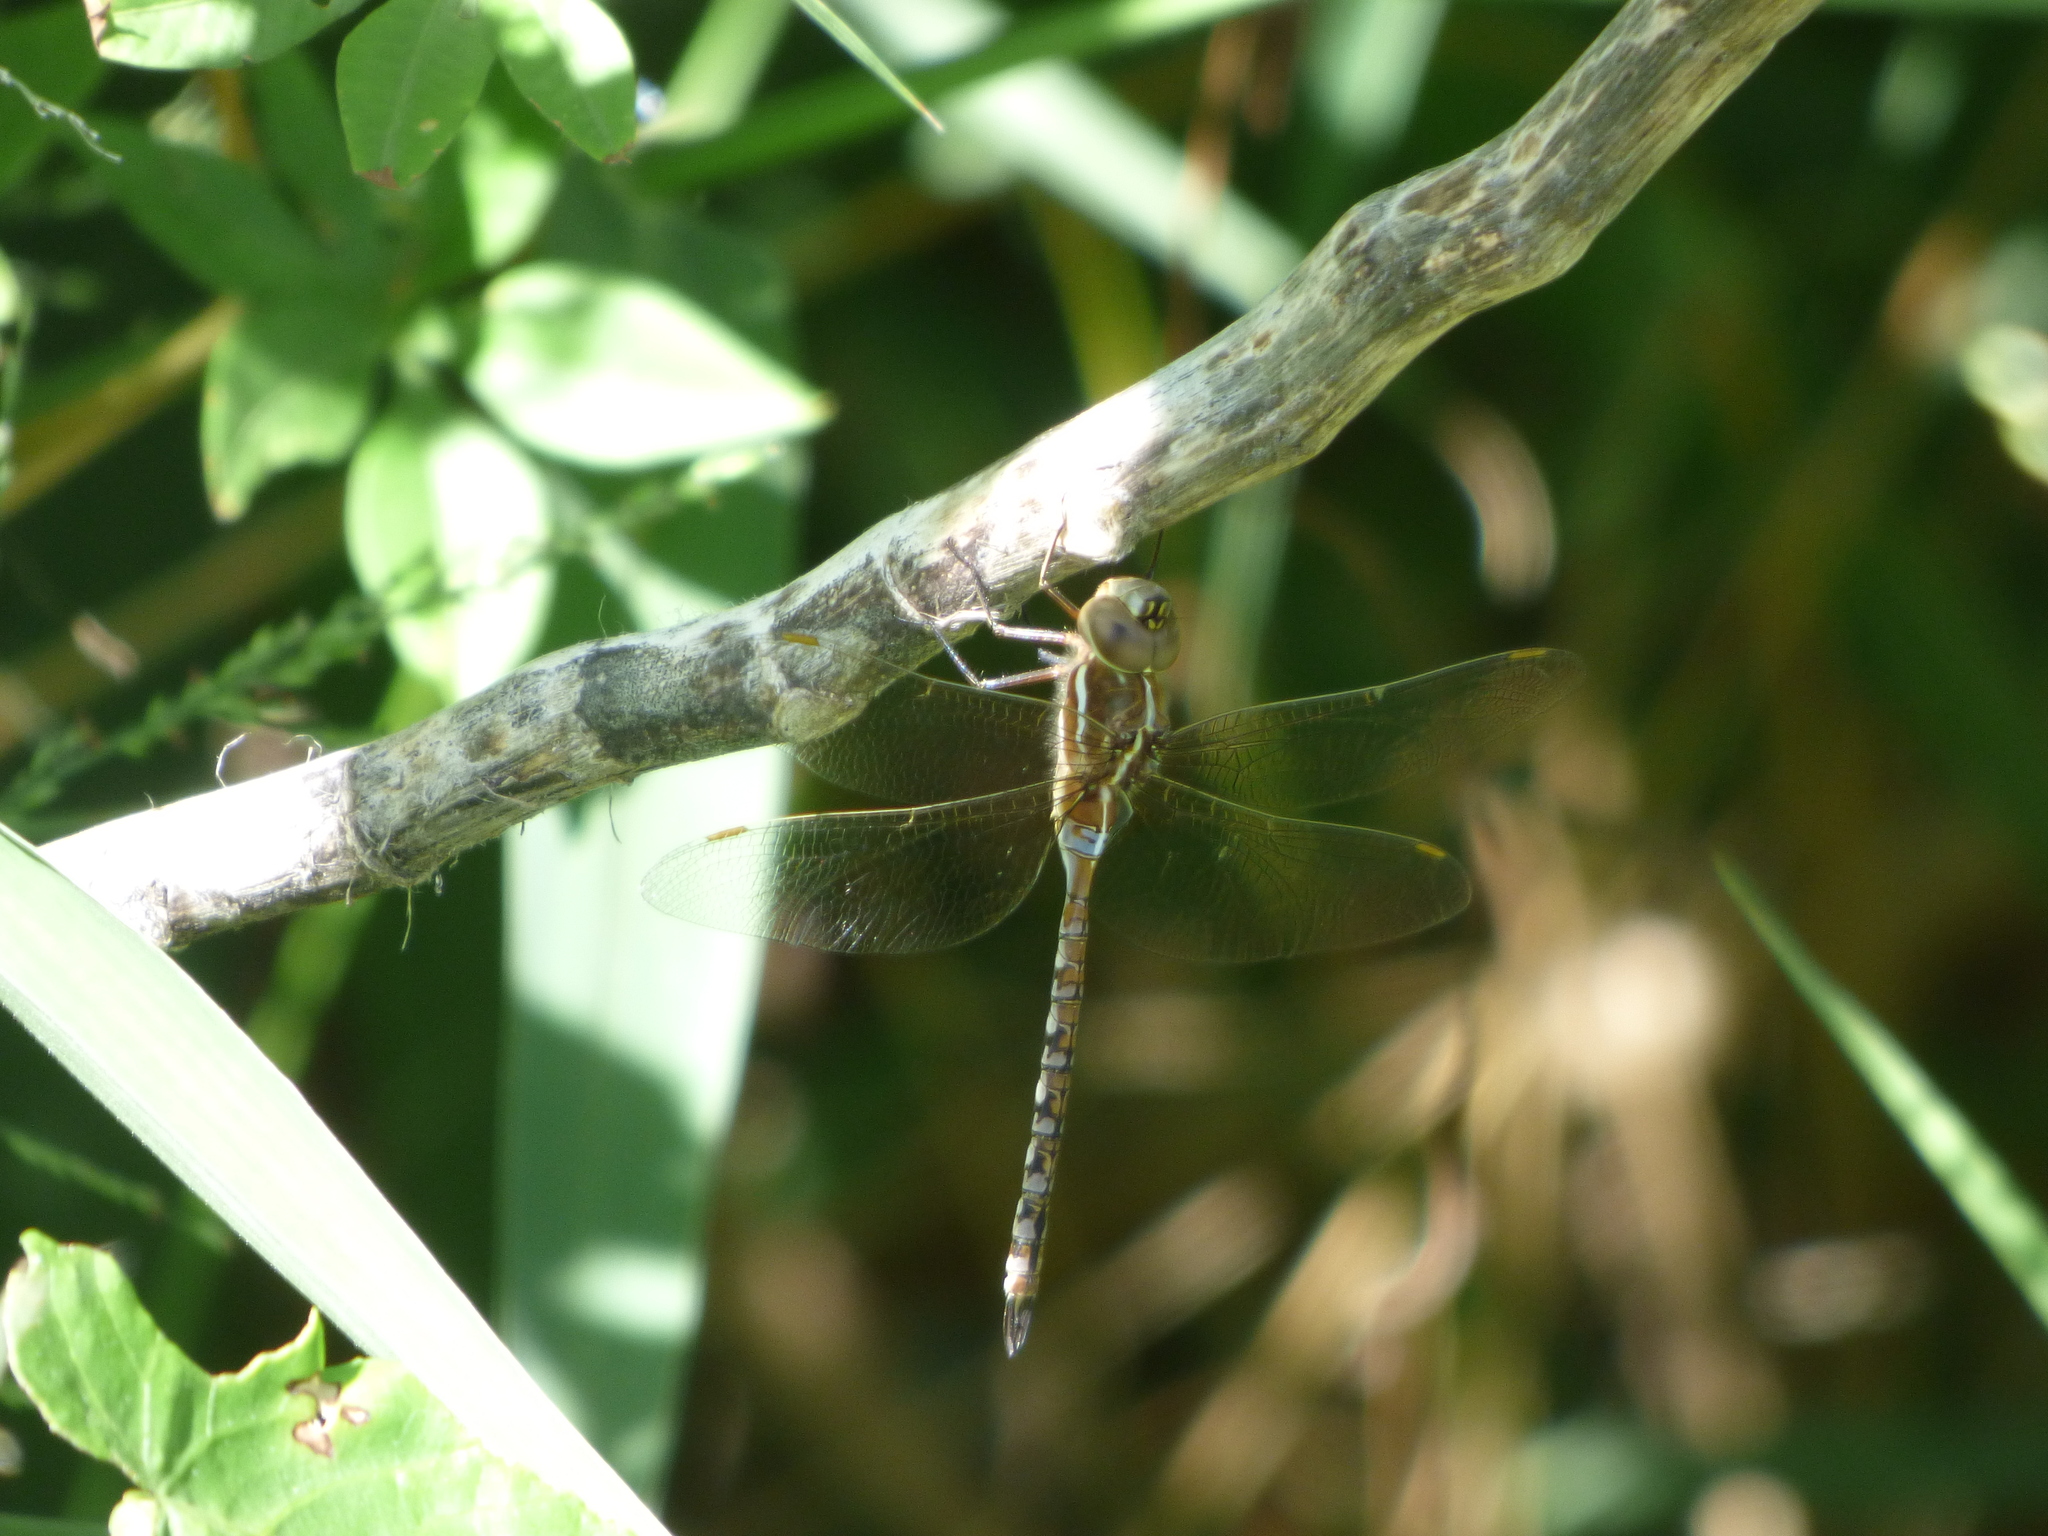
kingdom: Animalia
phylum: Arthropoda
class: Insecta
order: Odonata
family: Aeshnidae
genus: Rhionaeschna
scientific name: Rhionaeschna bonariensis
